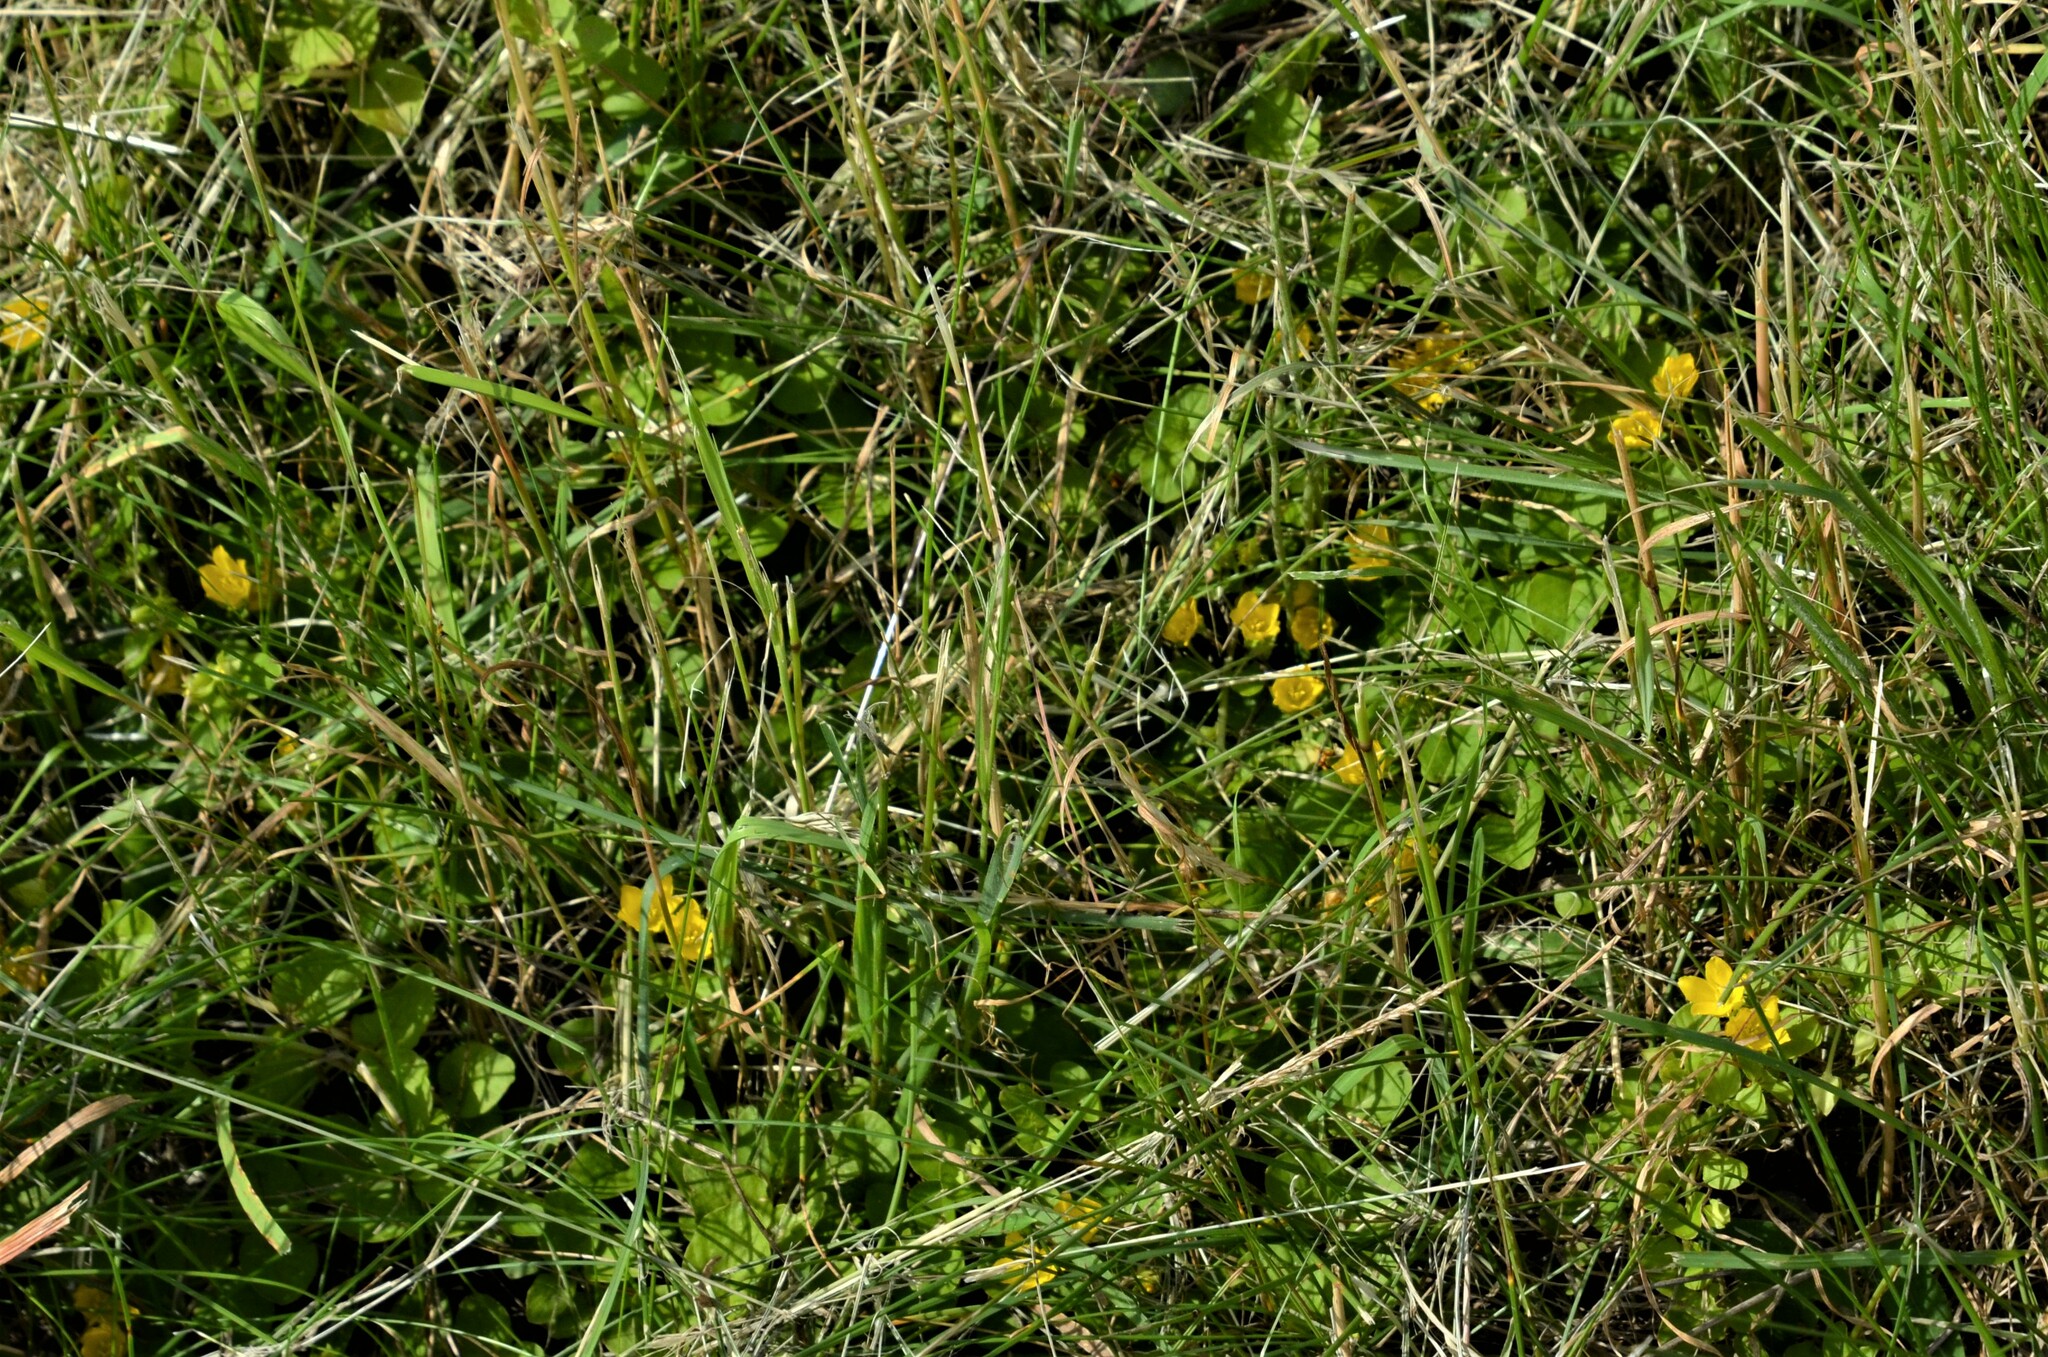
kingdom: Plantae
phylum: Tracheophyta
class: Magnoliopsida
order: Ericales
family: Primulaceae
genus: Lysimachia
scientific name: Lysimachia nummularia
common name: Moneywort
